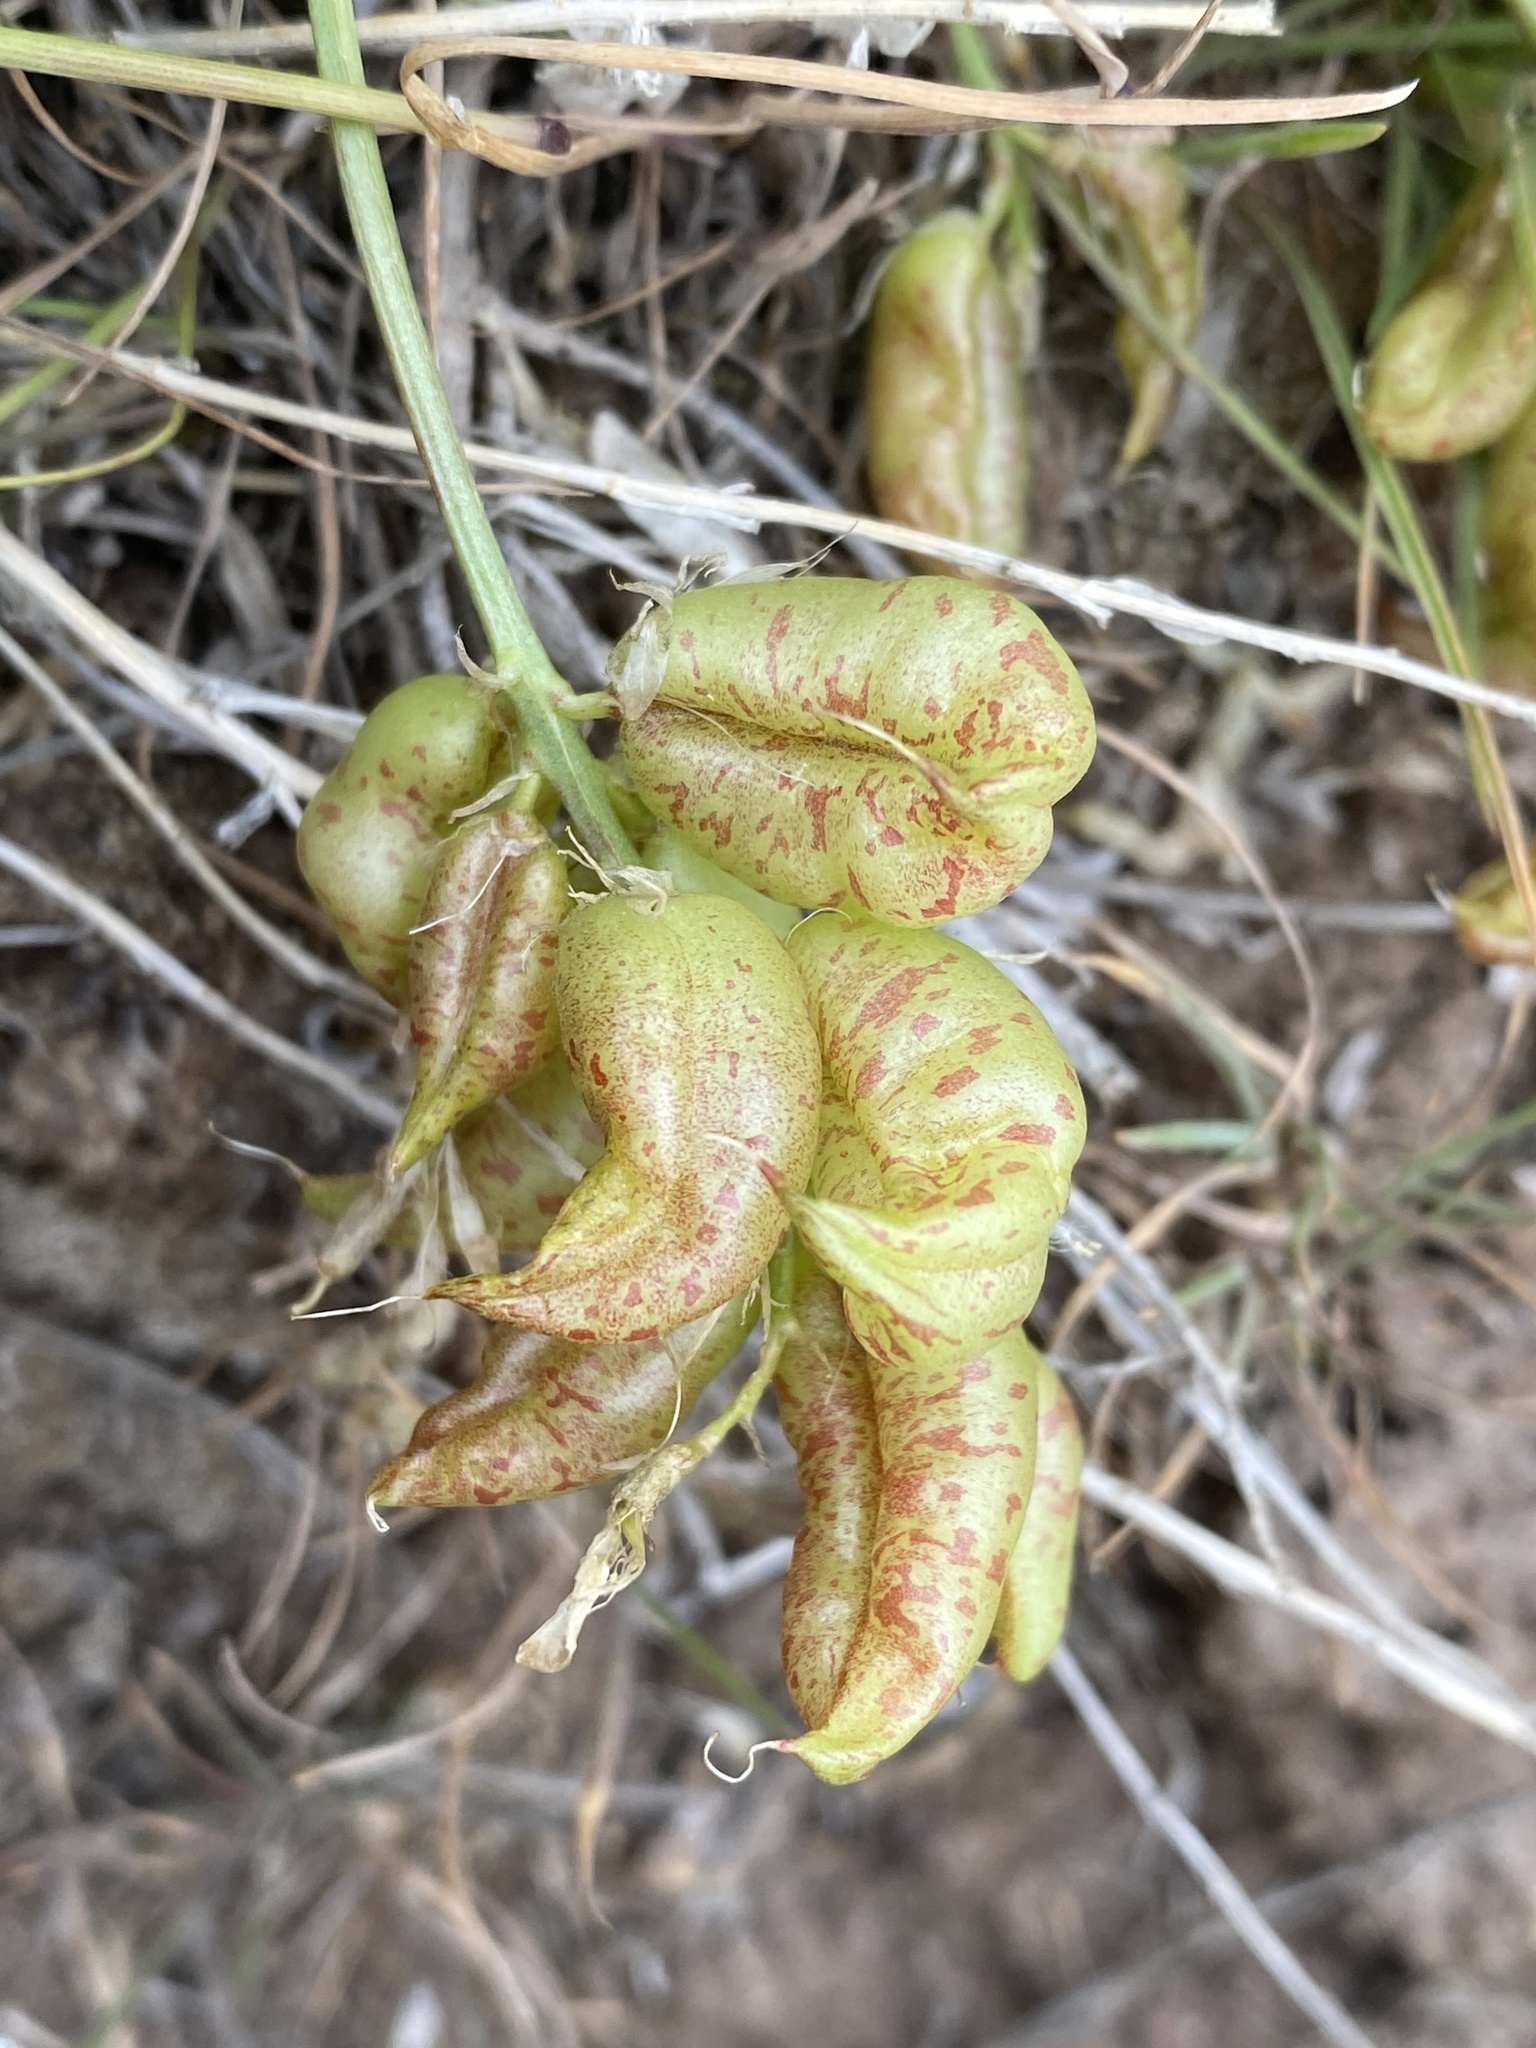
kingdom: Plantae
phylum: Tracheophyta
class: Magnoliopsida
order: Fabales
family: Fabaceae
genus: Astragalus
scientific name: Astragalus lentiginosus
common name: Freckled milkvetch
